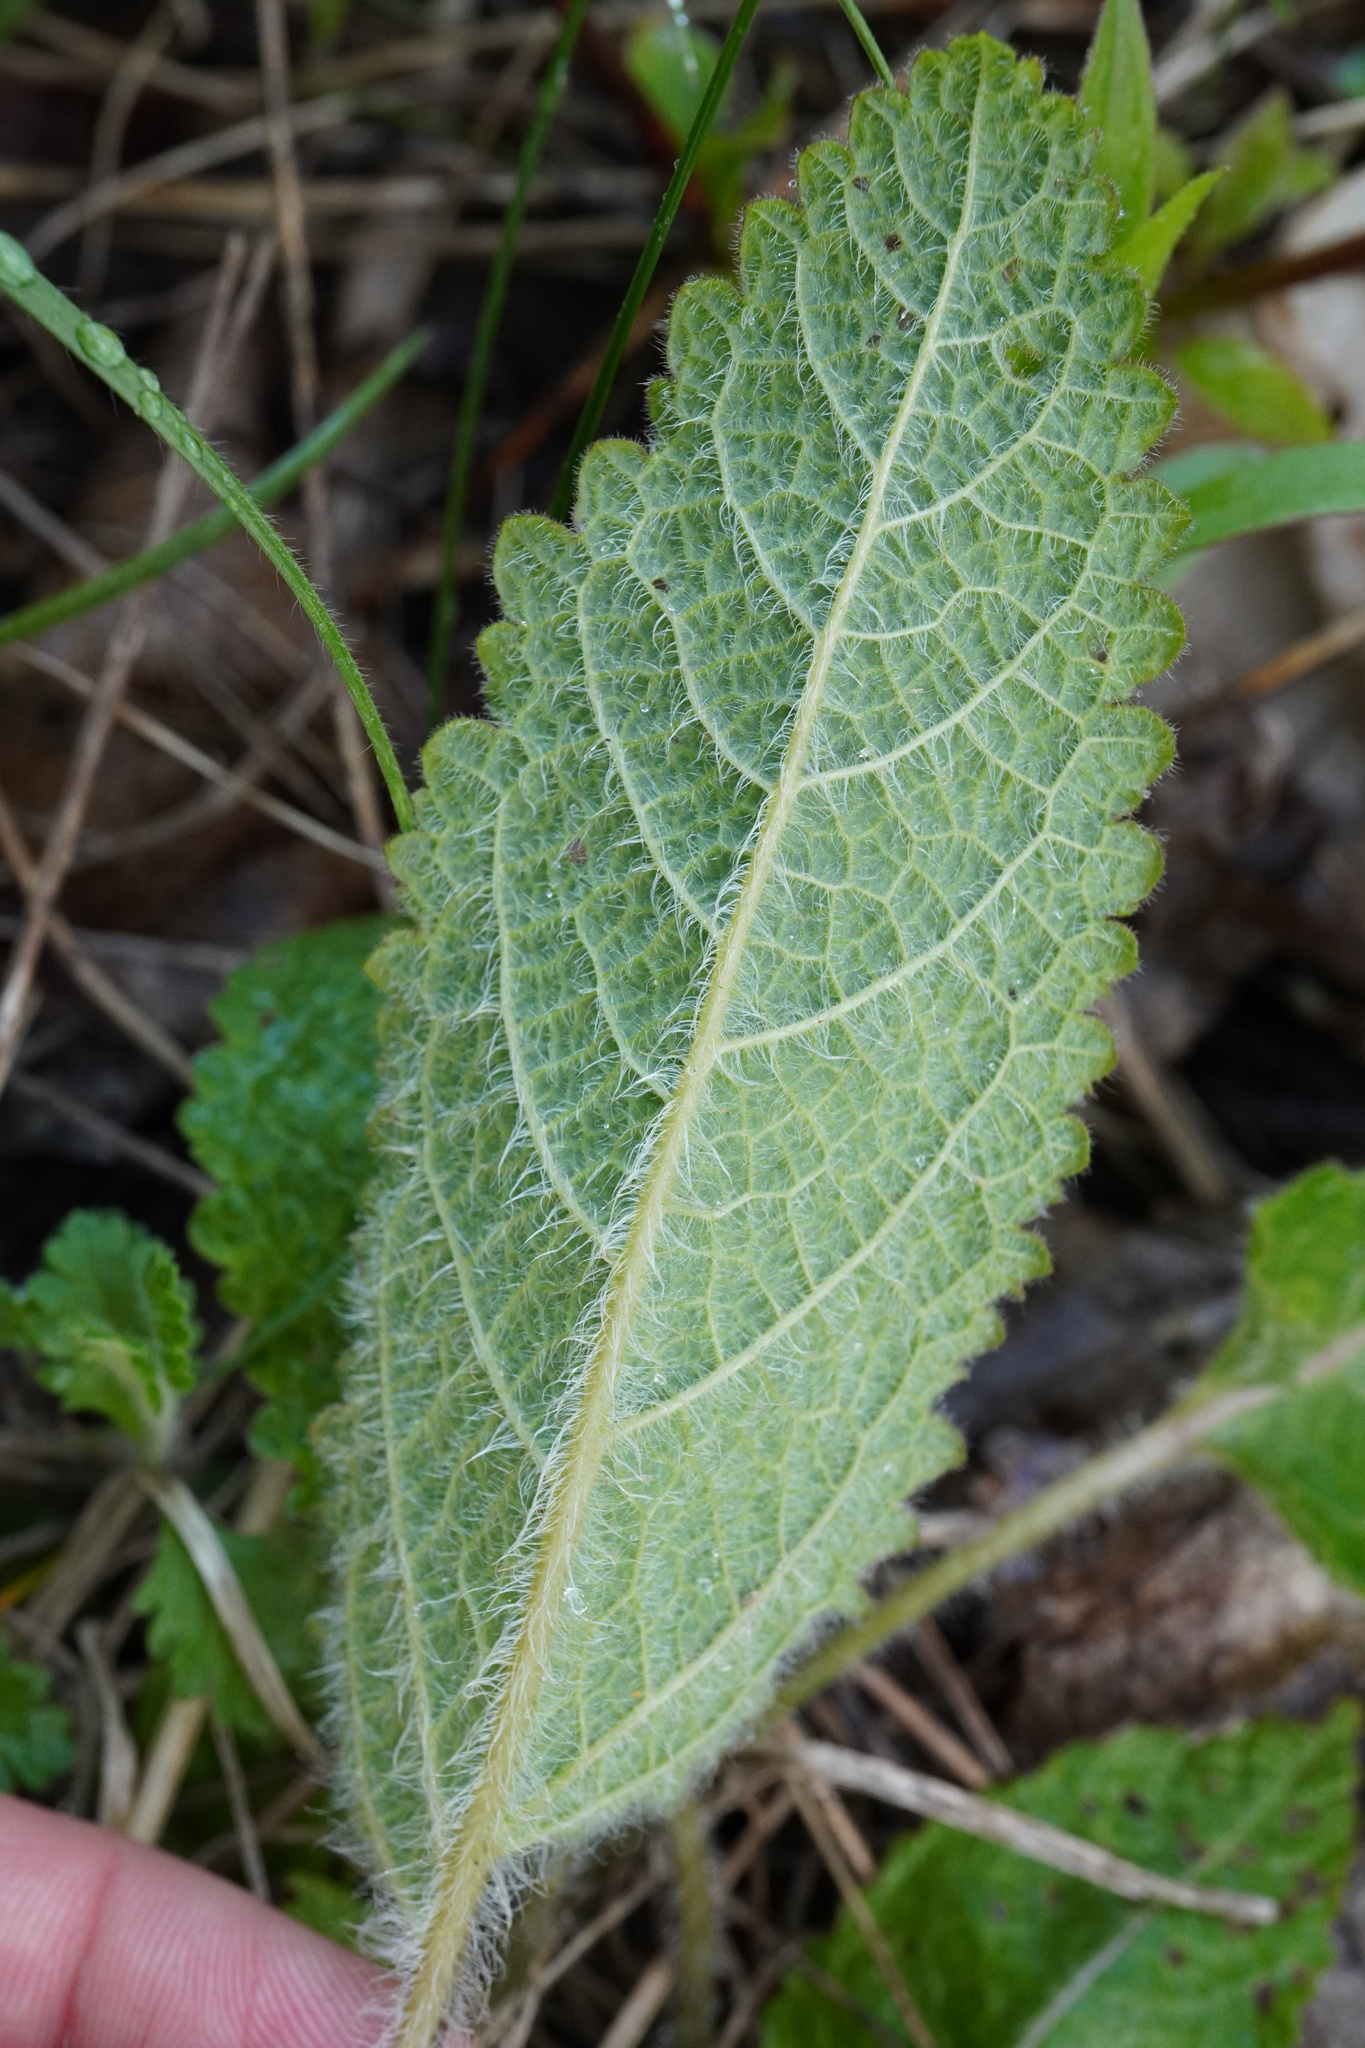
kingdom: Plantae
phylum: Tracheophyta
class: Magnoliopsida
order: Lamiales
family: Lamiaceae
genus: Salvia
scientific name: Salvia pratensis
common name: Meadow sage
